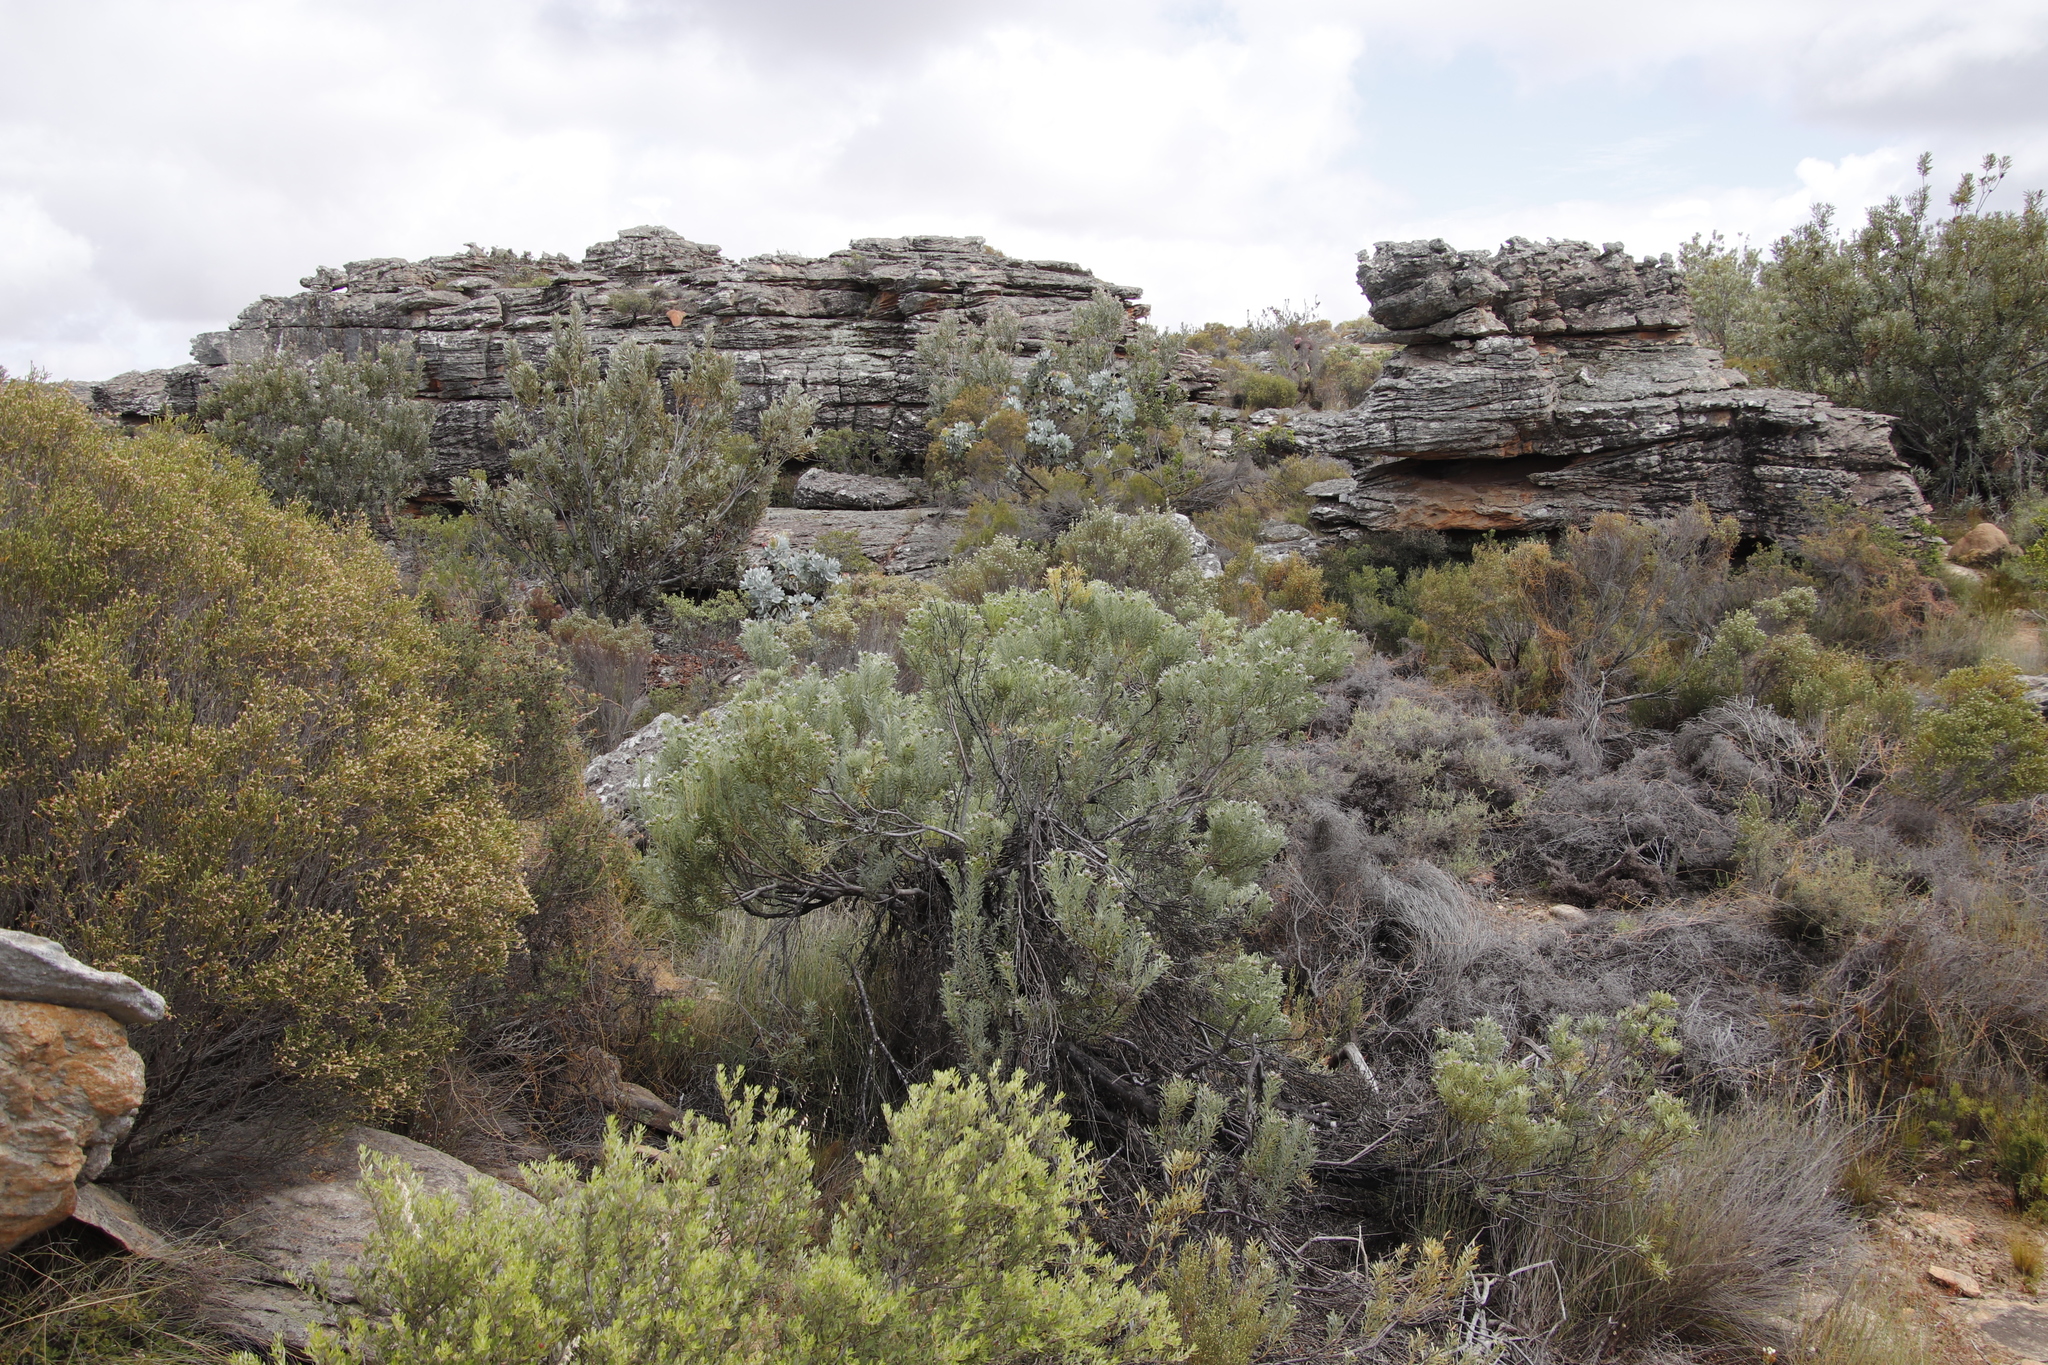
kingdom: Plantae
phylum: Tracheophyta
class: Magnoliopsida
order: Proteales
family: Proteaceae
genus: Leucadendron
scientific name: Leucadendron pubescens
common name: Grey conebush
